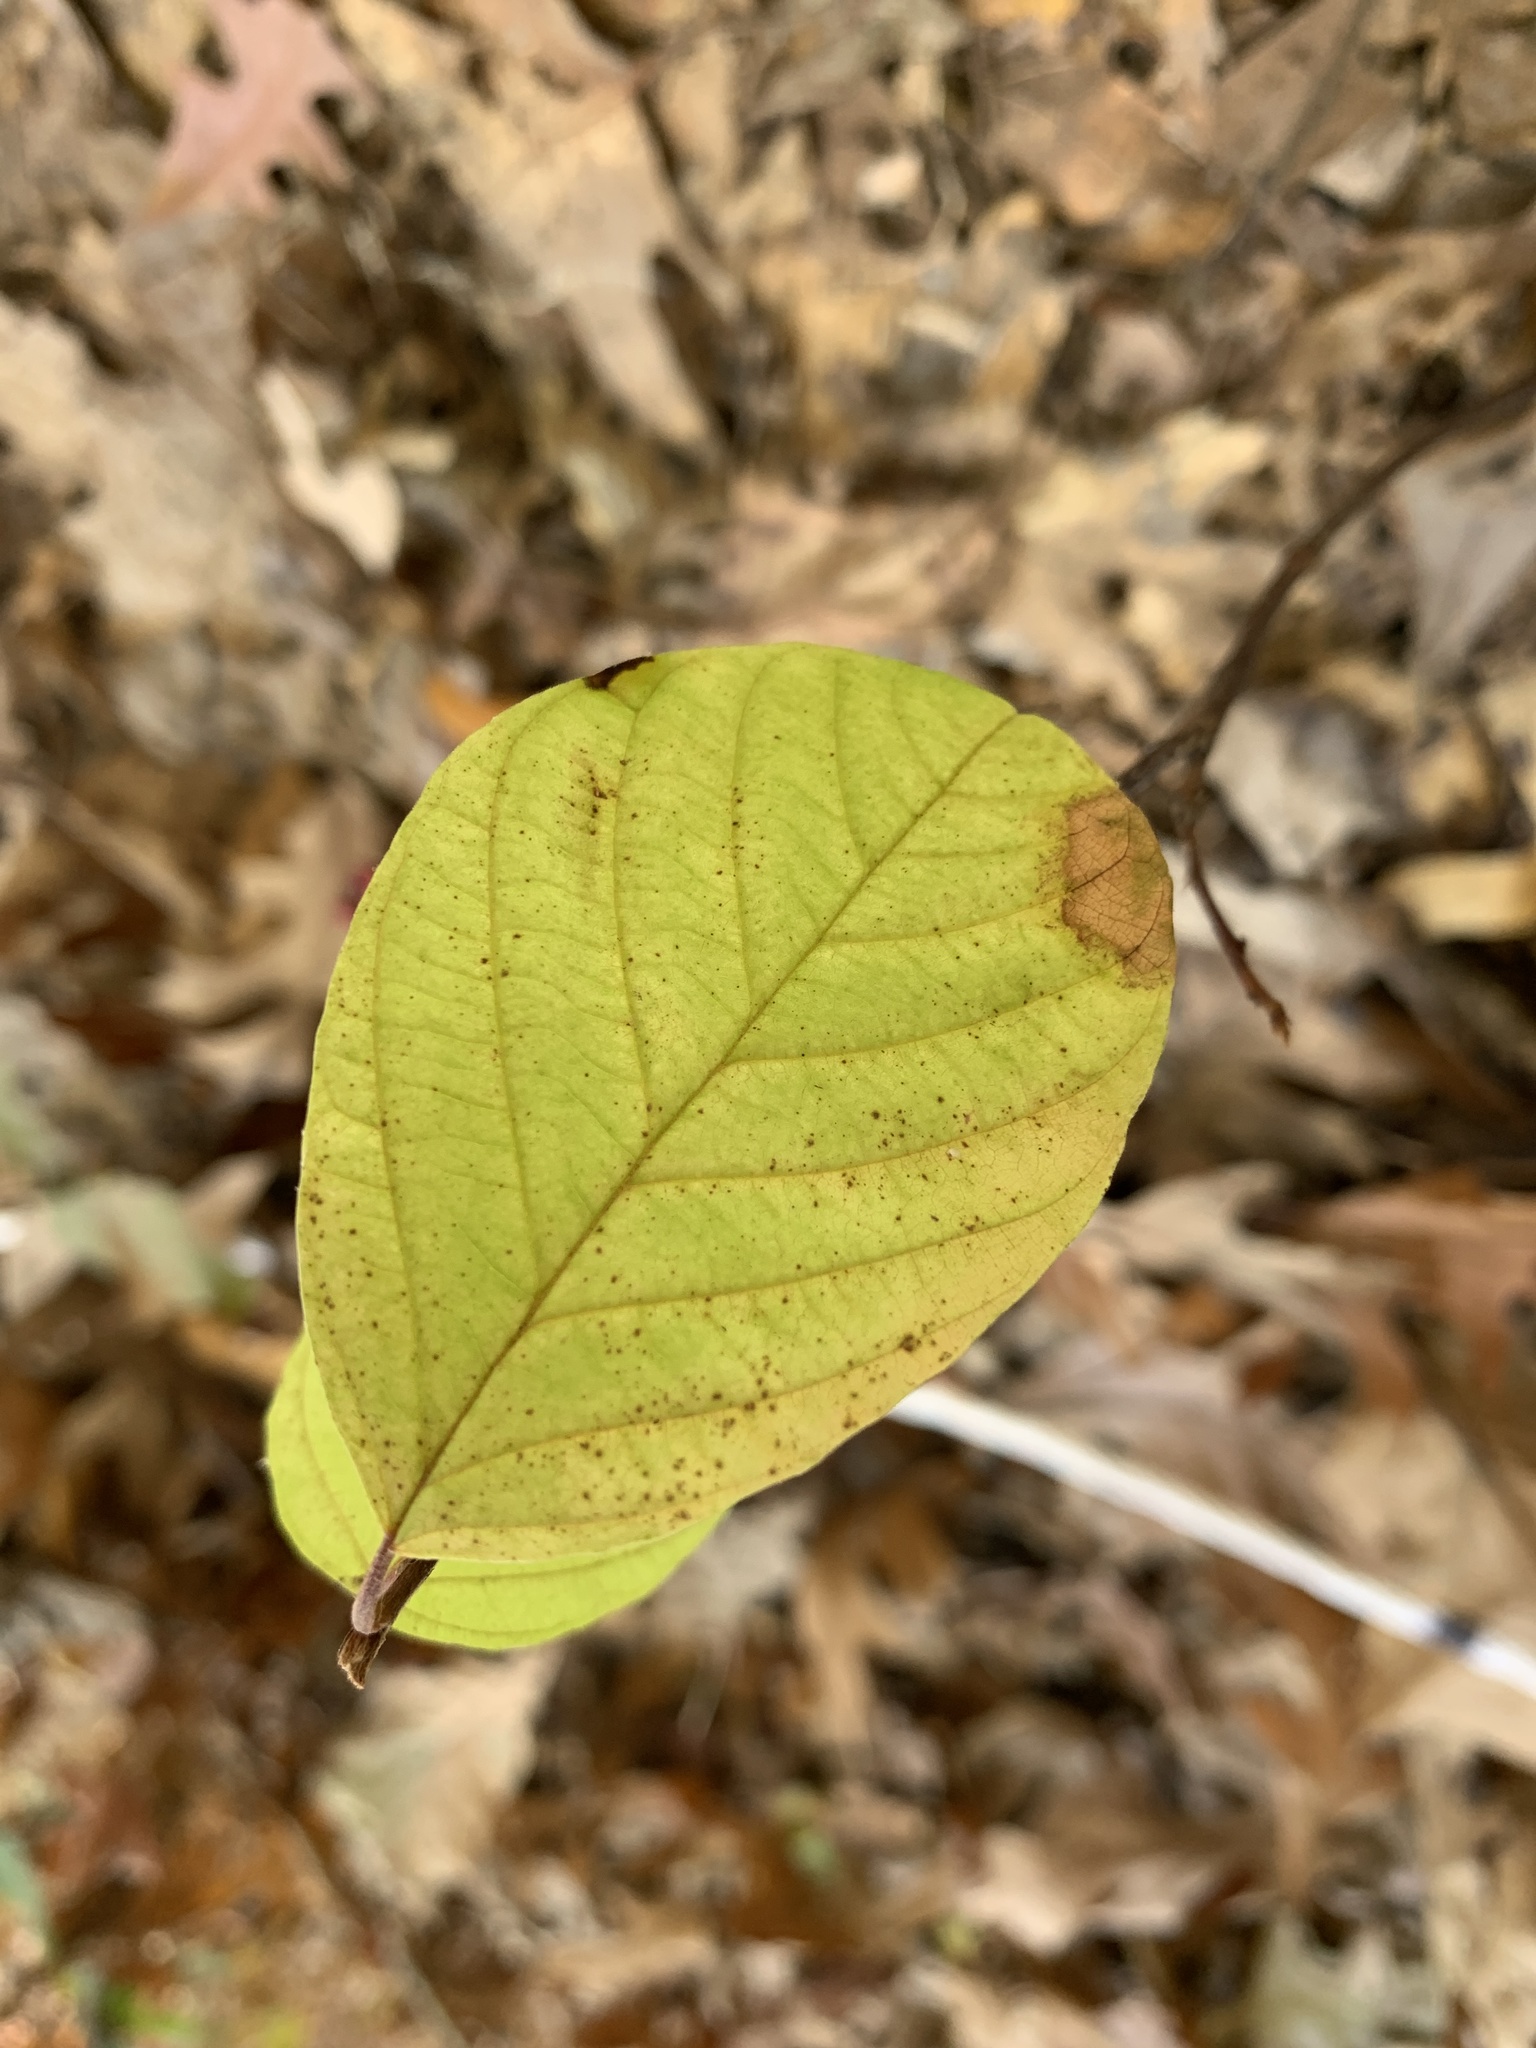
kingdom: Plantae
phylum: Tracheophyta
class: Magnoliopsida
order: Rosales
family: Rhamnaceae
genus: Frangula
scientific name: Frangula alnus
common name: Alder buckthorn
